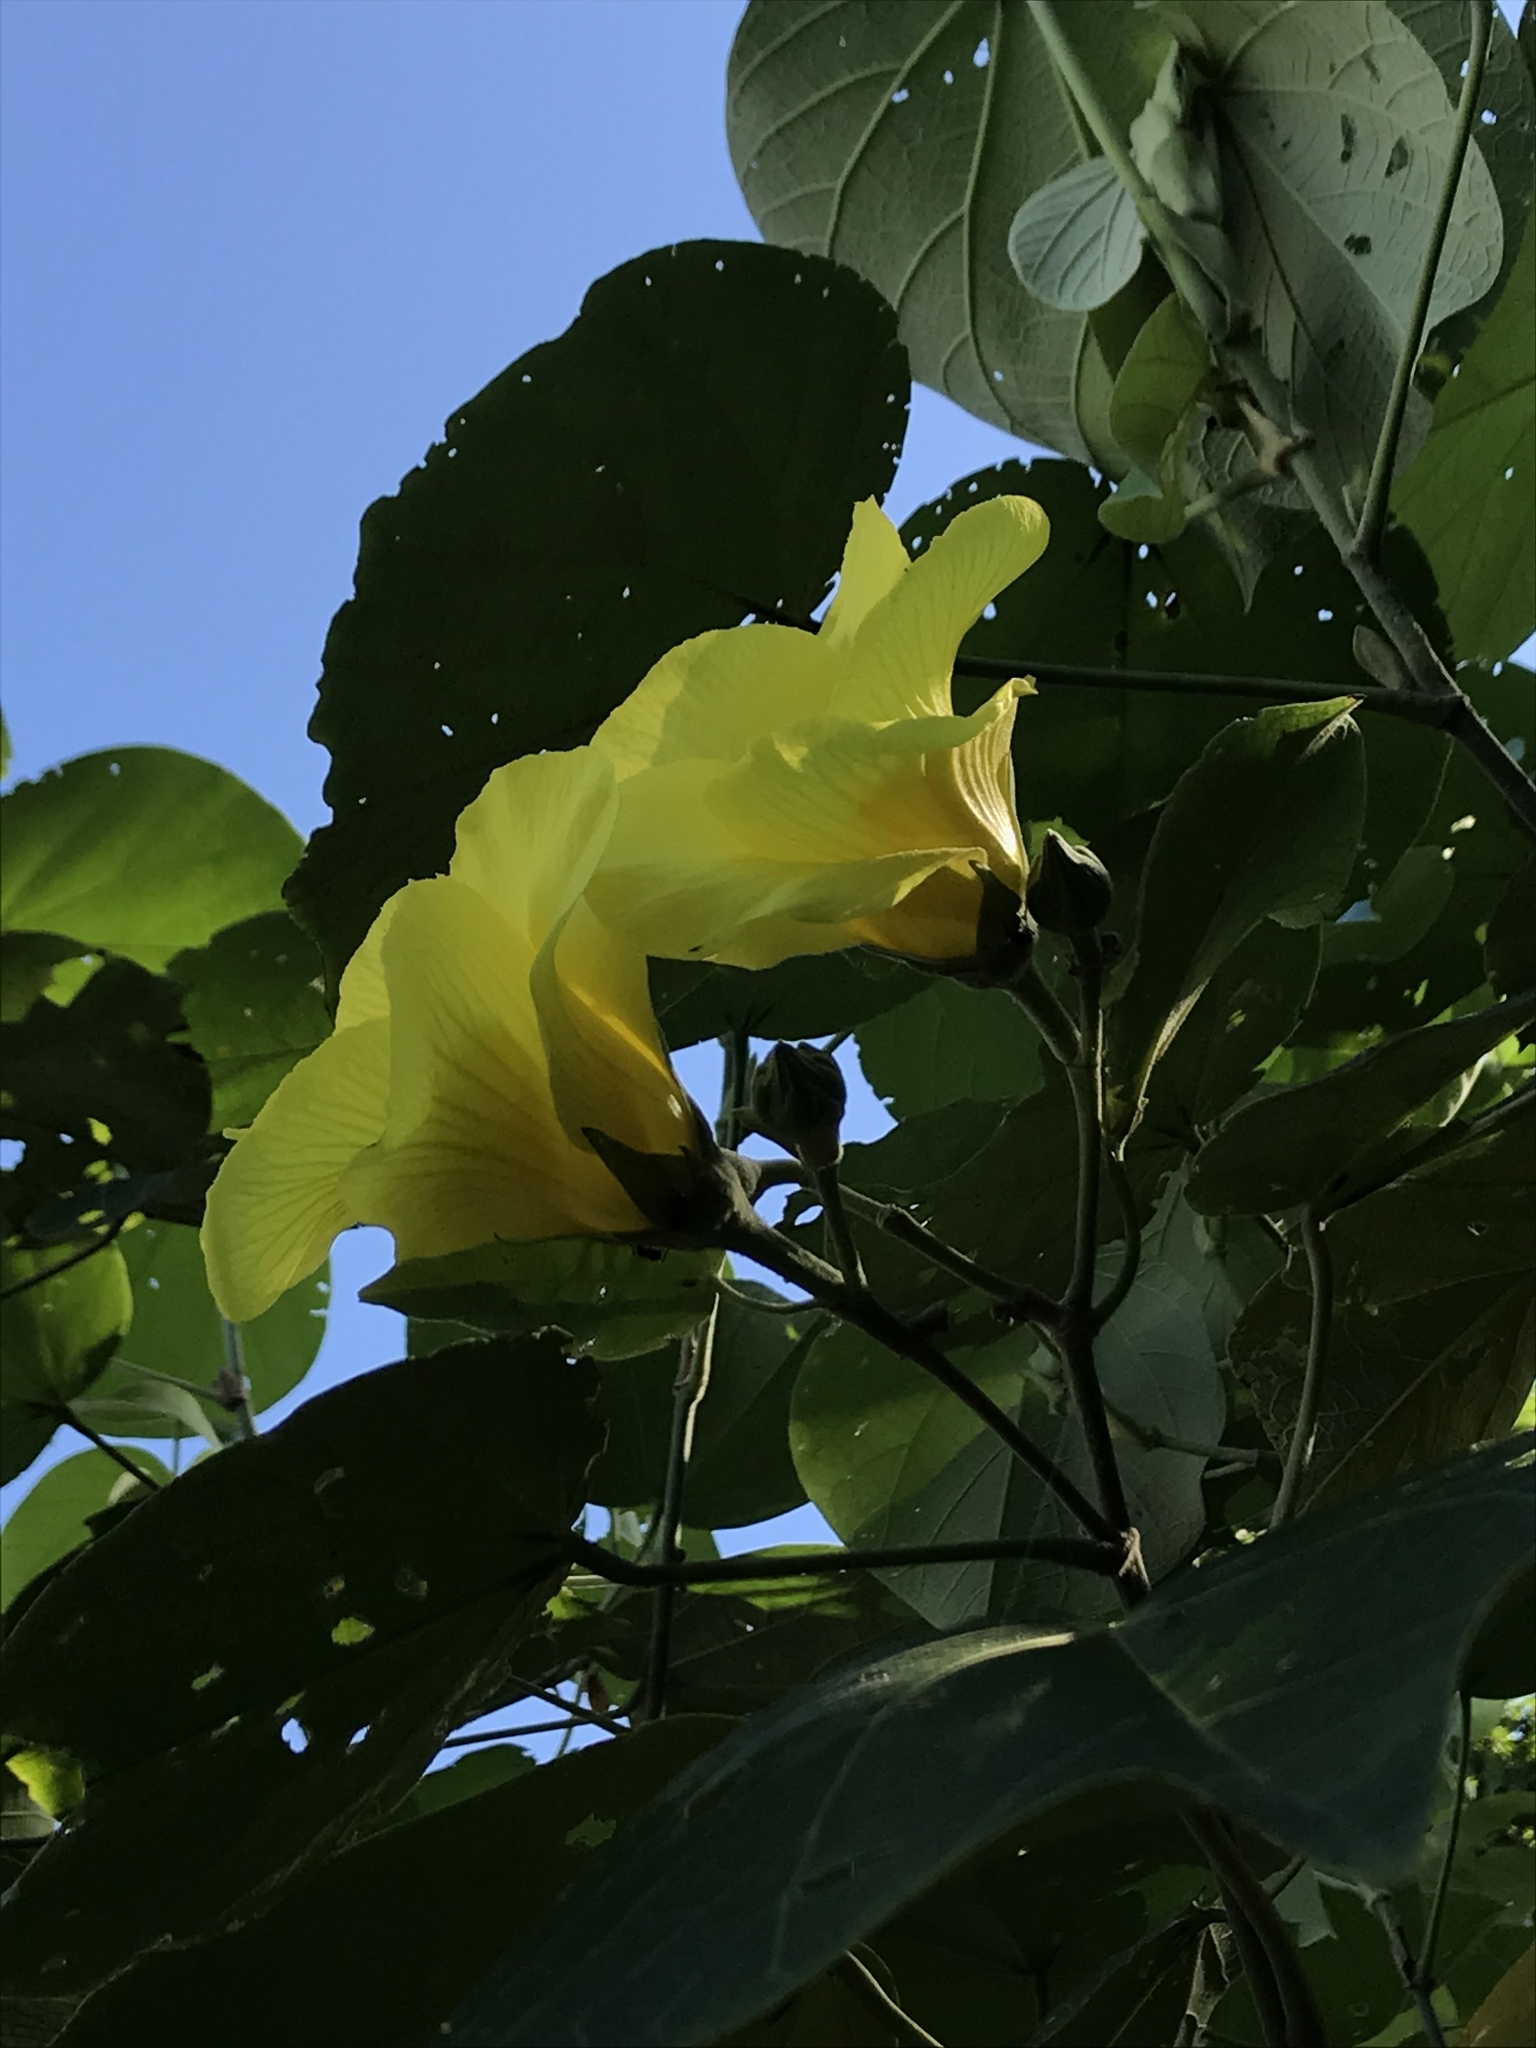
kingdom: Plantae
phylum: Tracheophyta
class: Magnoliopsida
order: Malvales
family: Malvaceae
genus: Talipariti
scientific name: Talipariti pernambucense
